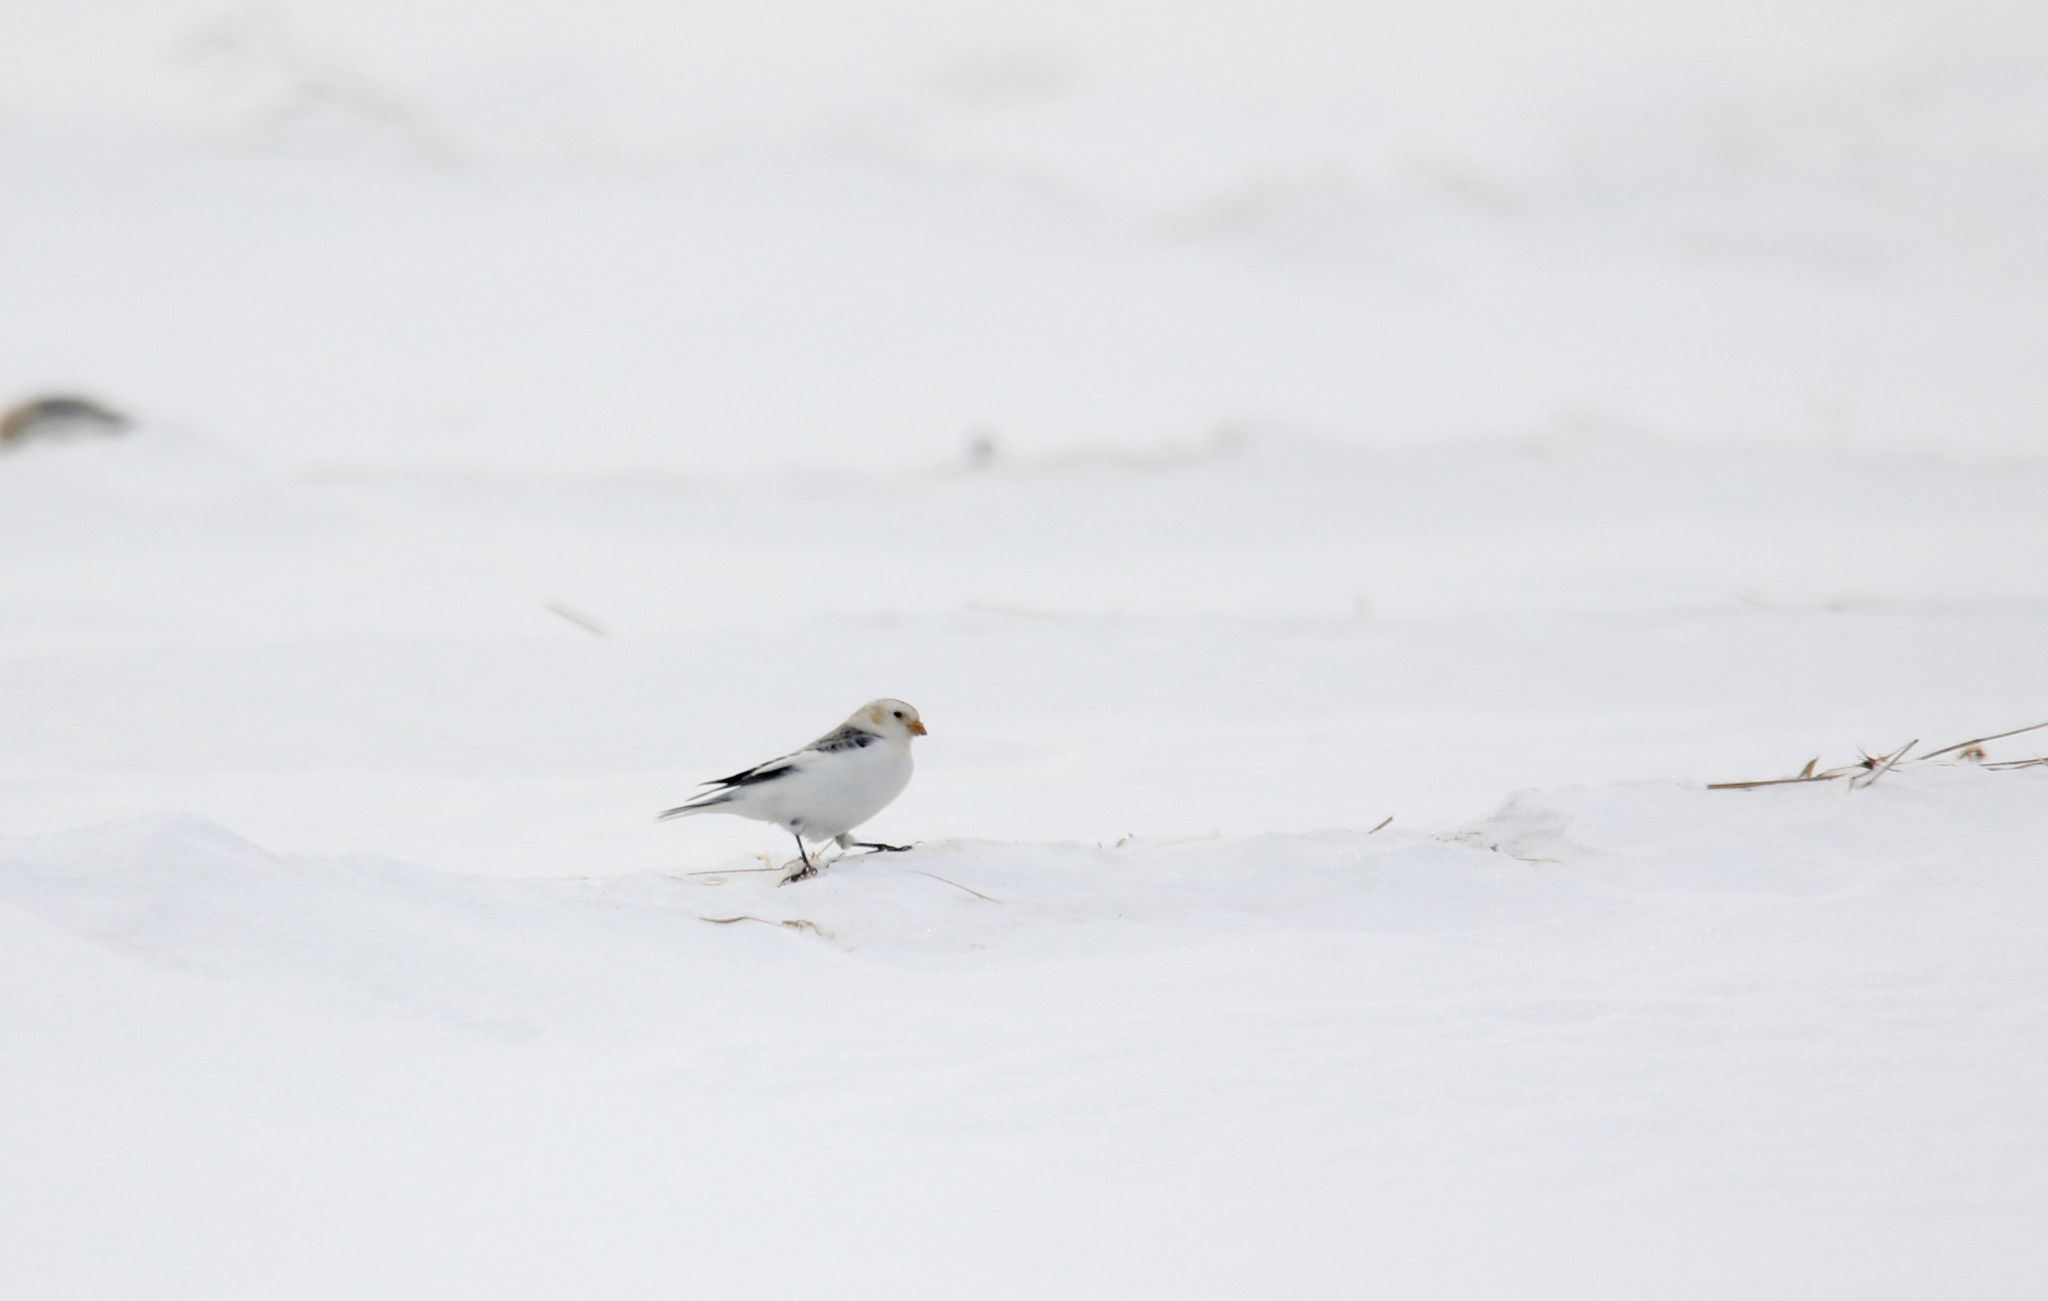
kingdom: Animalia
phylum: Chordata
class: Aves
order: Passeriformes
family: Calcariidae
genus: Plectrophenax
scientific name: Plectrophenax nivalis
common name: Snow bunting
